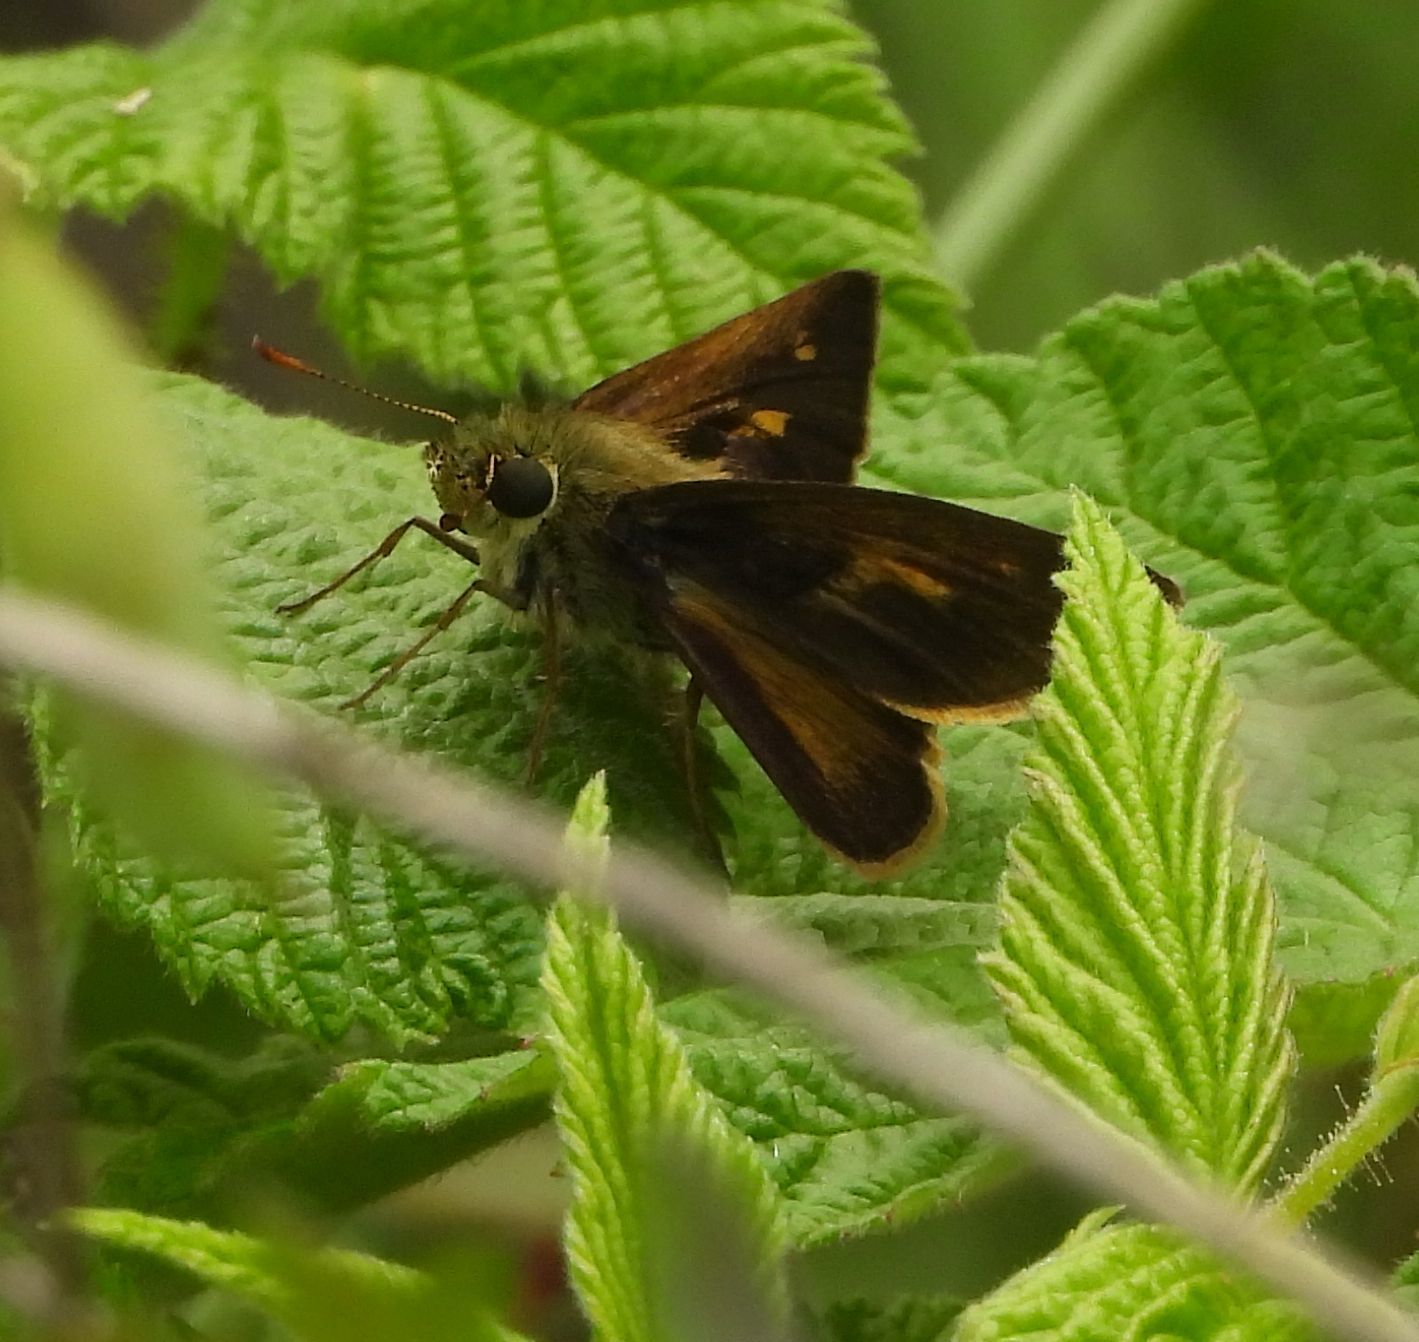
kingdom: Animalia
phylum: Arthropoda
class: Insecta
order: Lepidoptera
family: Hesperiidae
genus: Polites
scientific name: Polites egeremet
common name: Northern broken-dash
